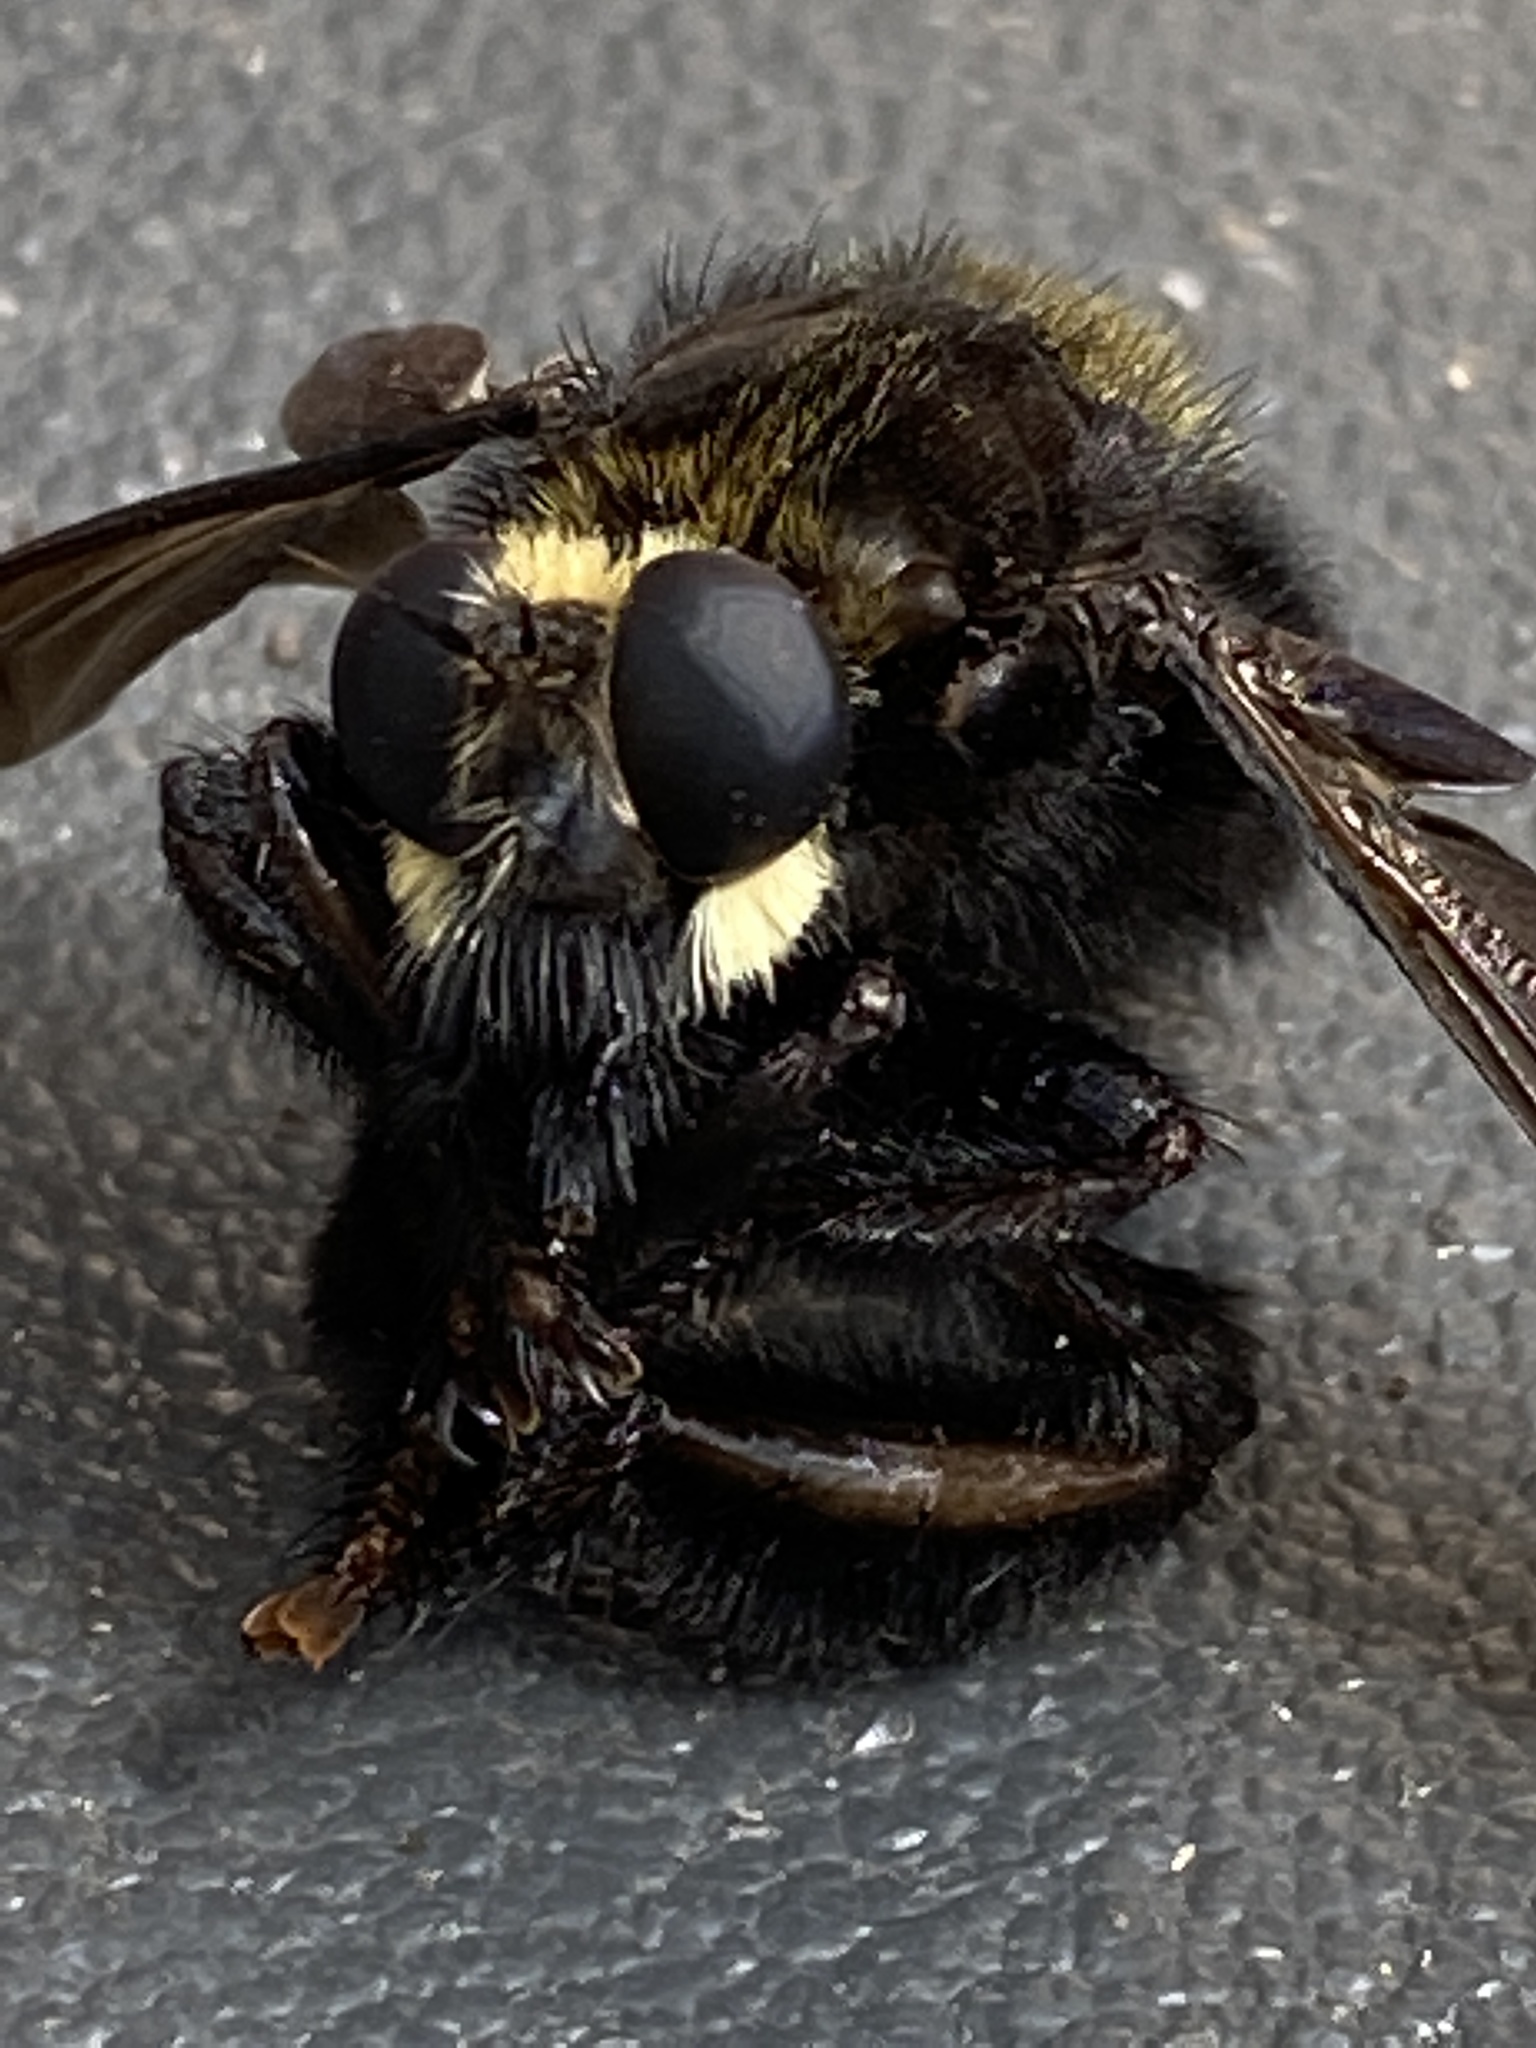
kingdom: Animalia
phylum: Arthropoda
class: Insecta
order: Diptera
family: Asilidae
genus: Mallophora
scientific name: Mallophora leschenaultii
